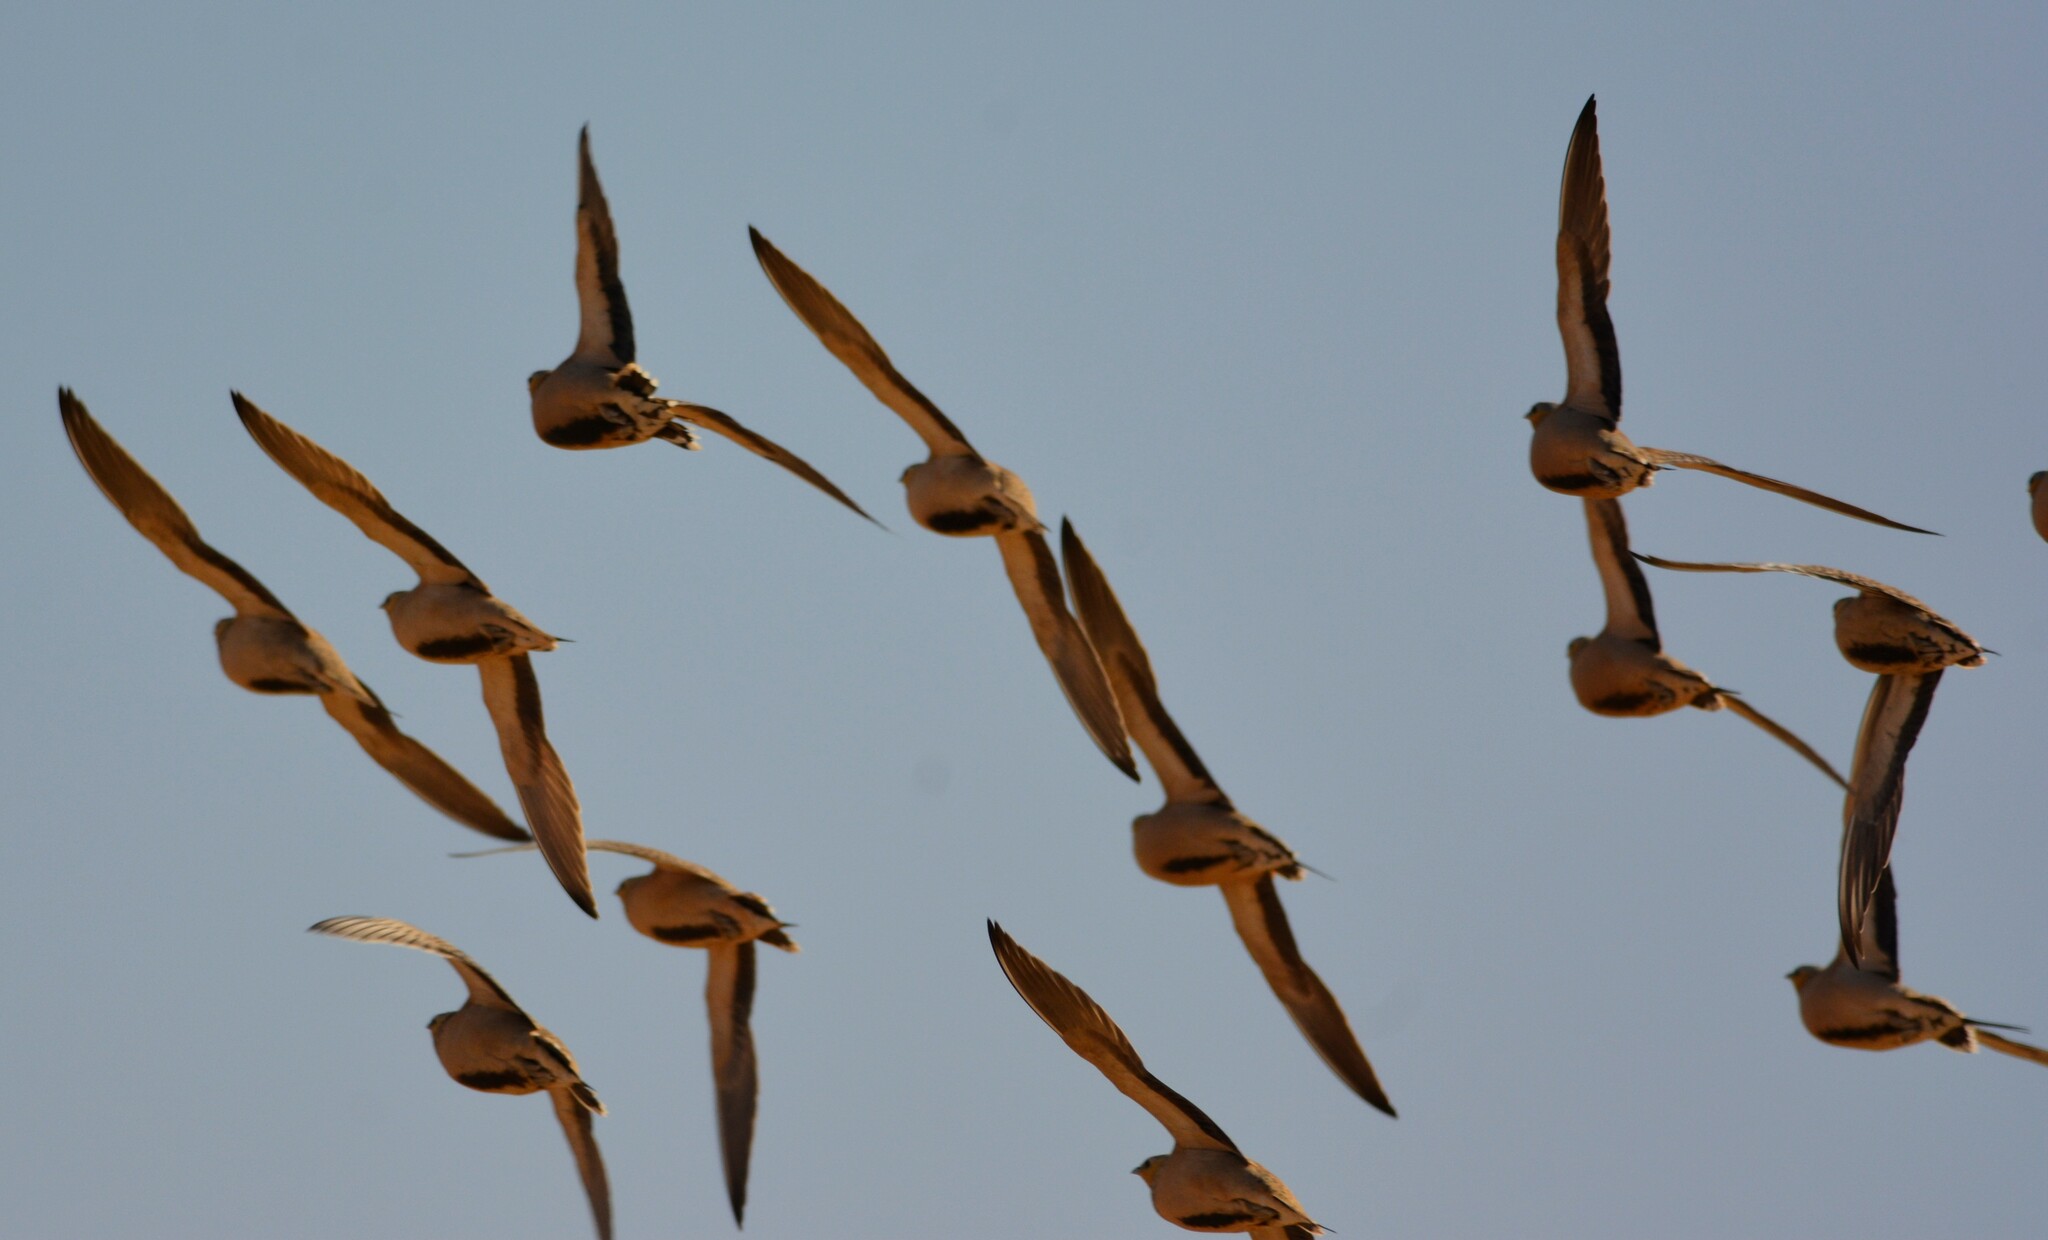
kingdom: Animalia
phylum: Chordata
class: Aves
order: Pteroclidiformes
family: Pteroclididae
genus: Pterocles
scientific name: Pterocles senegallus
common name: Spotted sandgrouse
